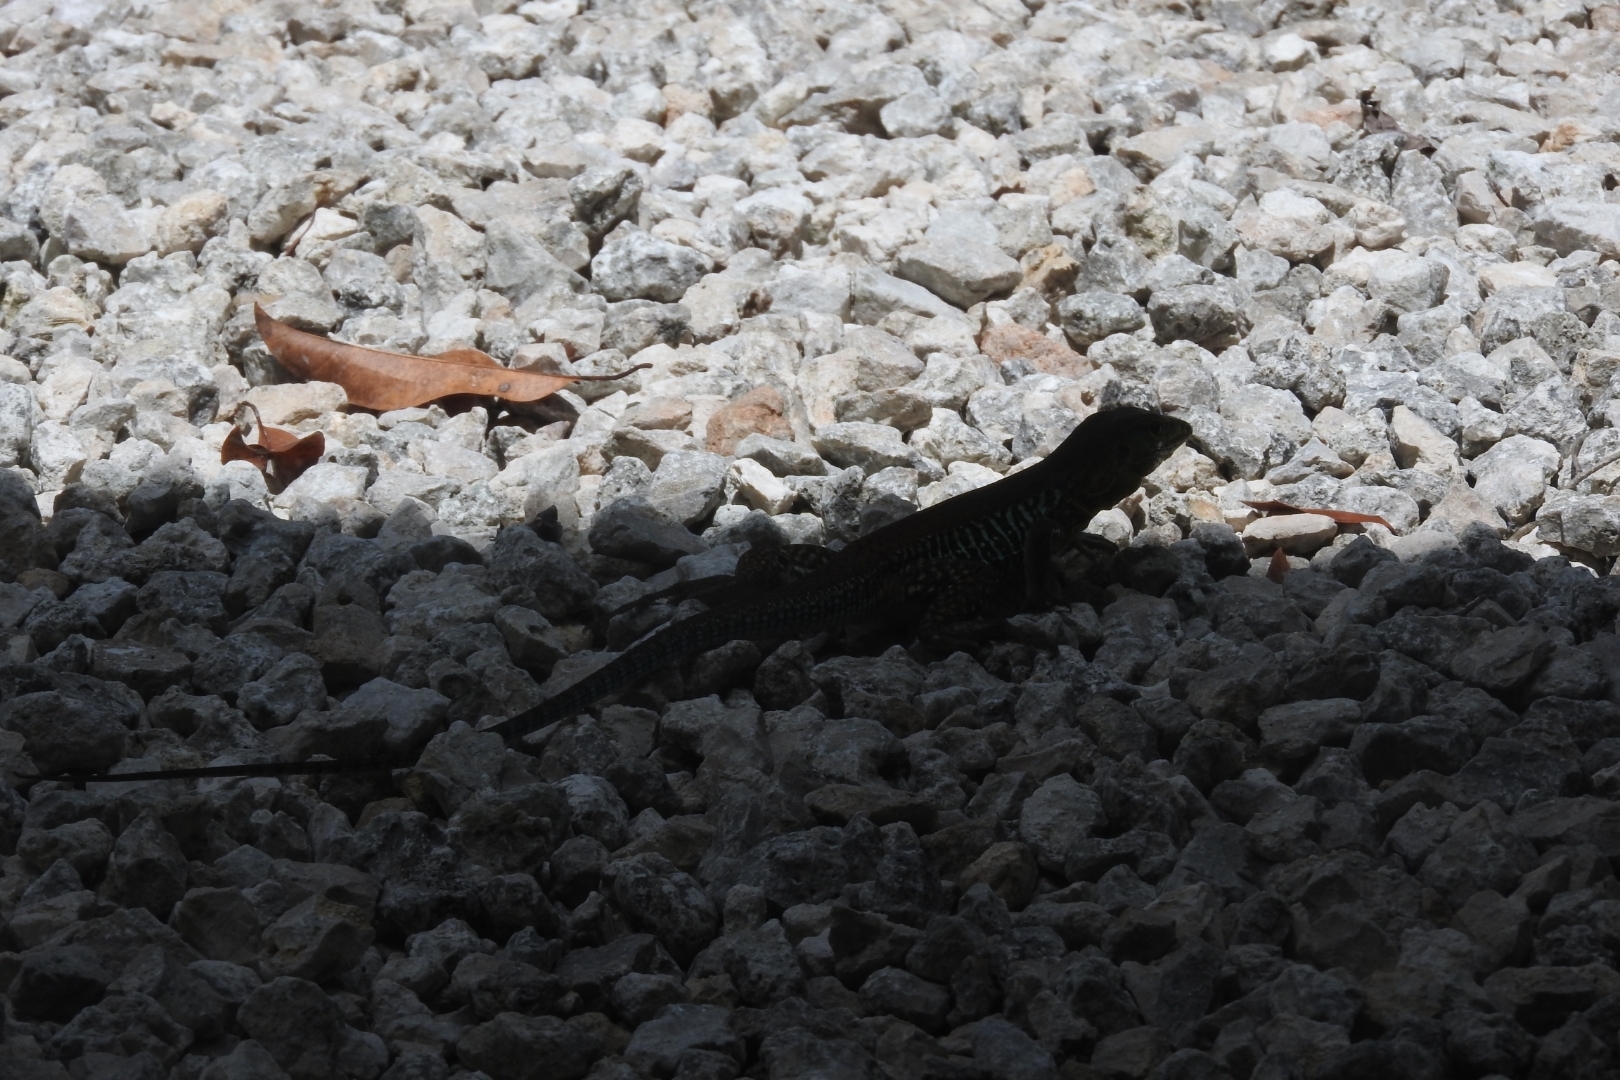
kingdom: Animalia
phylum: Chordata
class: Squamata
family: Teiidae
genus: Holcosus
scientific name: Holcosus undulatus
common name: Rainbow ameiva
